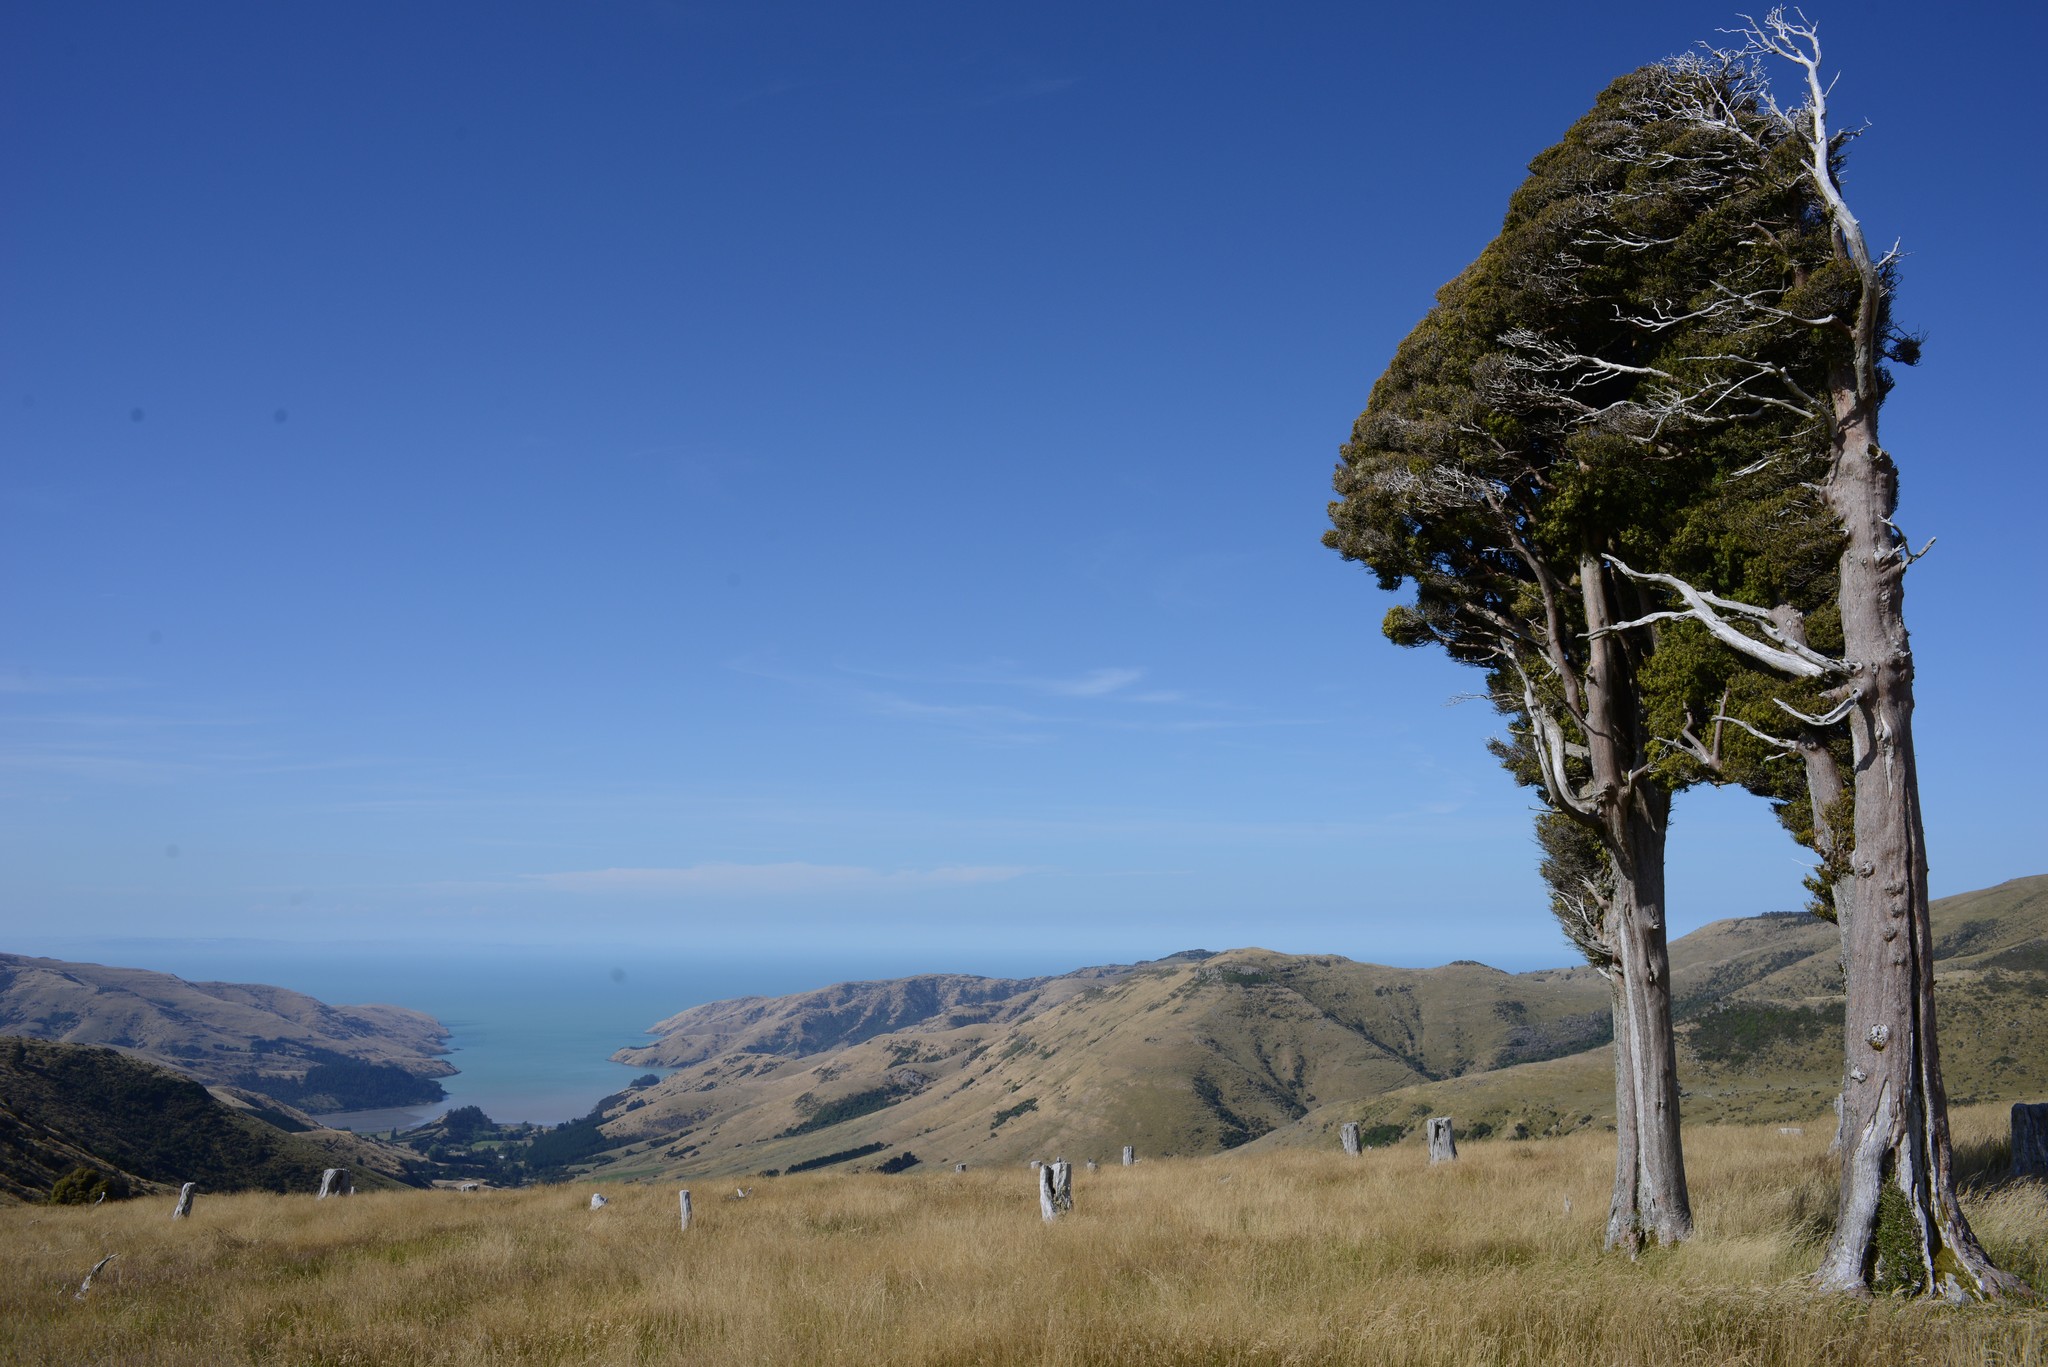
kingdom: Plantae
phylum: Tracheophyta
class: Pinopsida
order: Pinales
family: Podocarpaceae
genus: Podocarpus
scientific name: Podocarpus laetus
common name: Hall's totara
